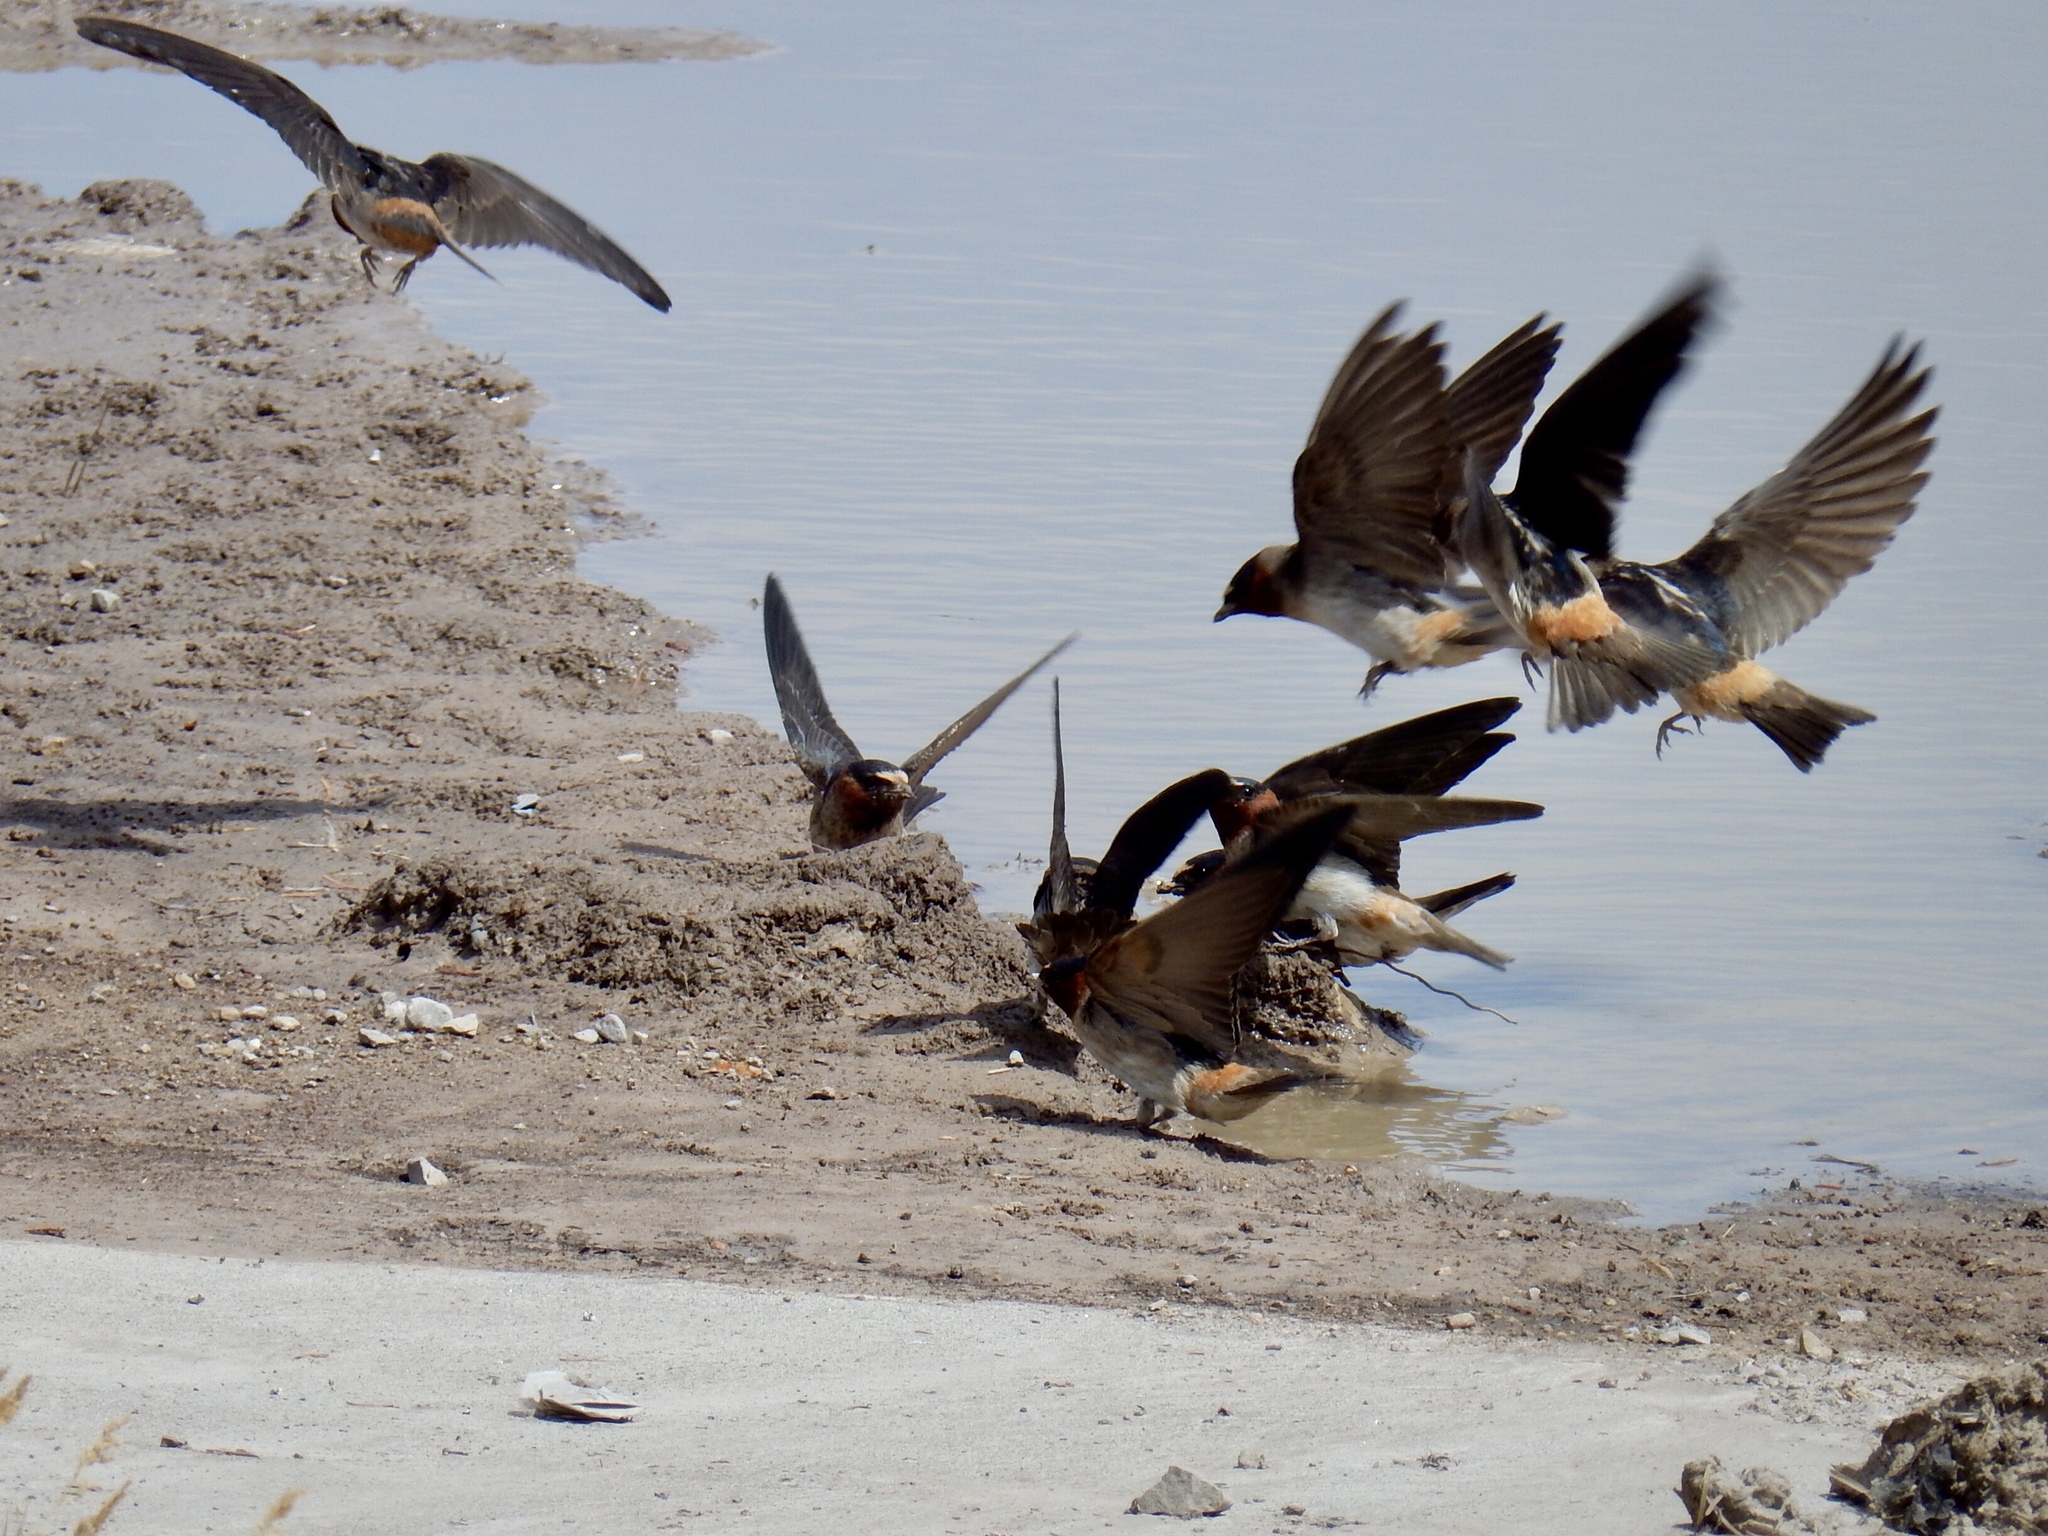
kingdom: Animalia
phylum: Chordata
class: Aves
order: Passeriformes
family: Hirundinidae
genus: Petrochelidon
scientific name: Petrochelidon pyrrhonota
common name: American cliff swallow
